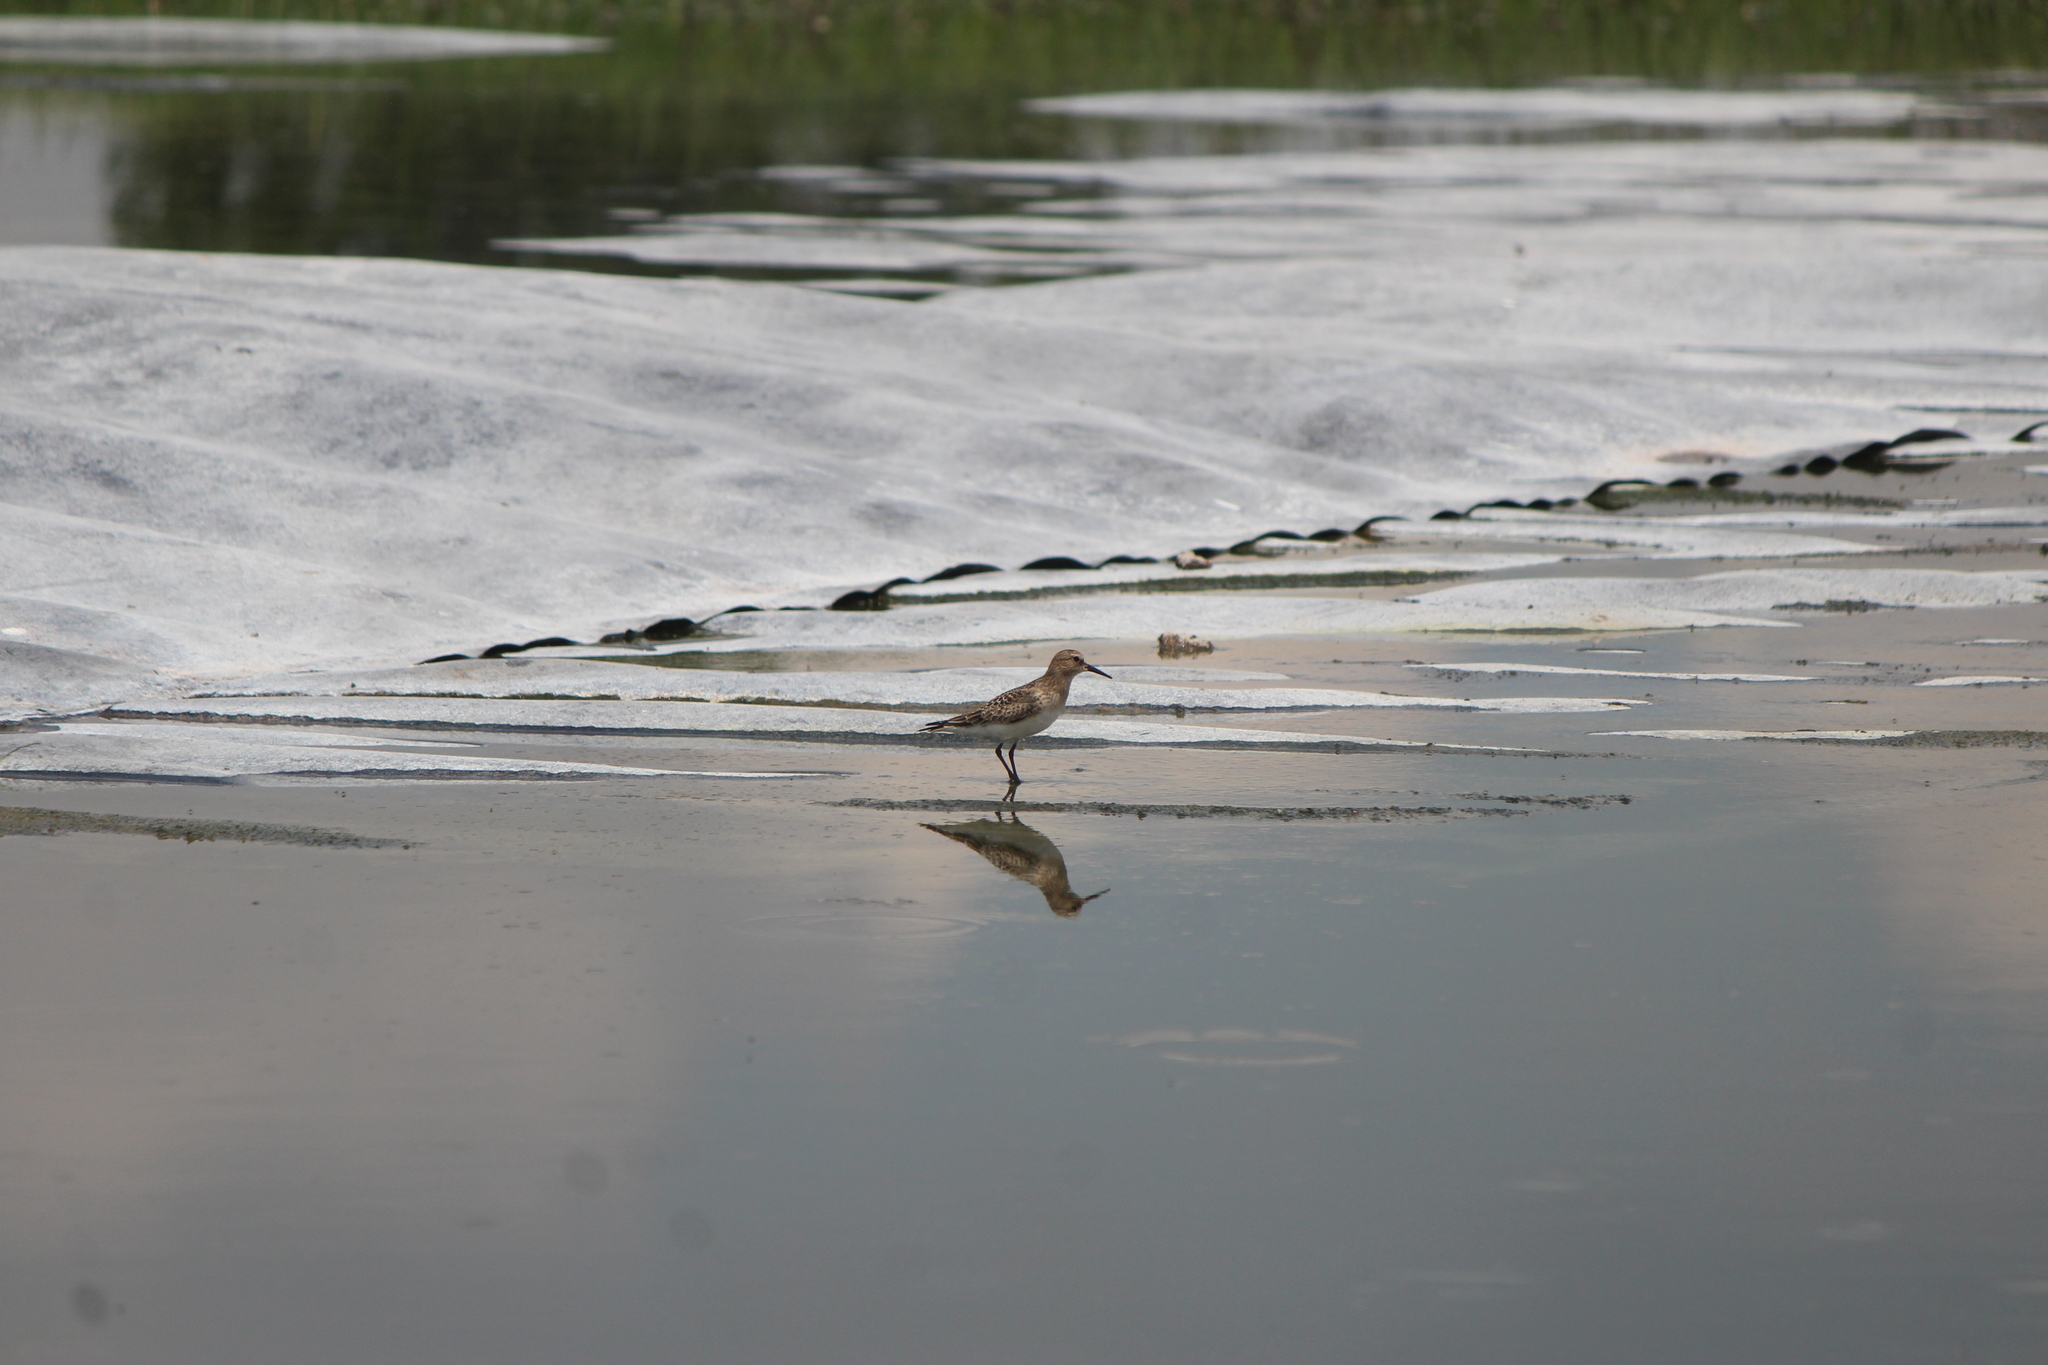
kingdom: Animalia
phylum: Chordata
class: Aves
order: Charadriiformes
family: Scolopacidae
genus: Calidris
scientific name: Calidris bairdii
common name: Baird's sandpiper
